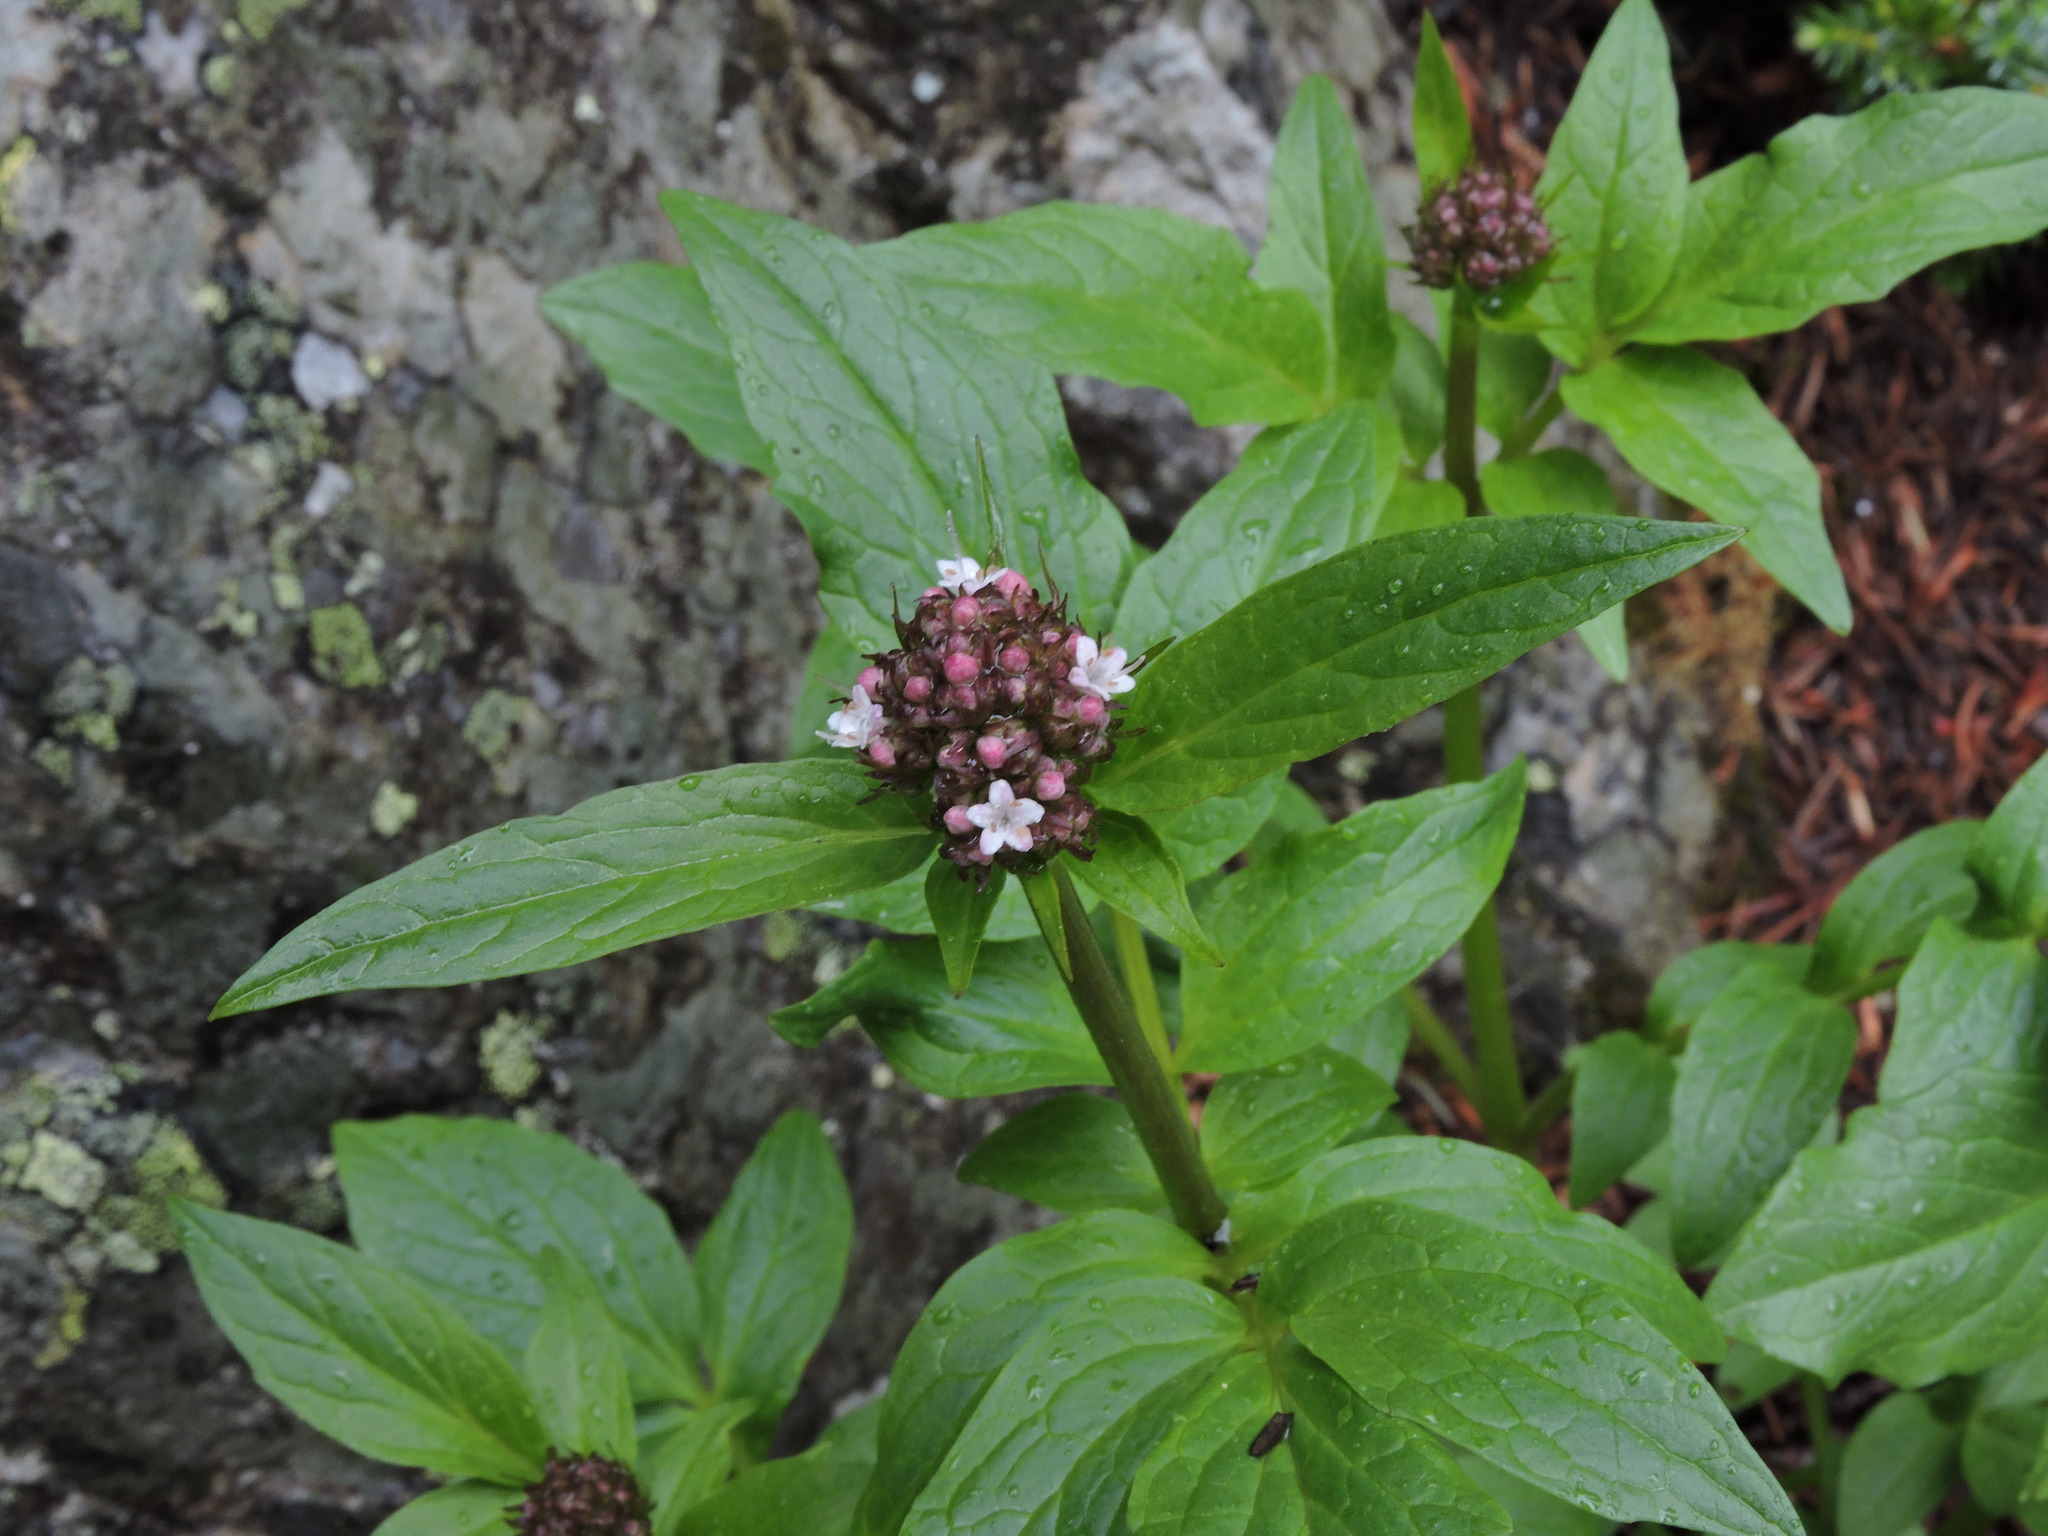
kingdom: Plantae
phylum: Tracheophyta
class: Magnoliopsida
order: Dipsacales
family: Caprifoliaceae
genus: Valeriana
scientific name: Valeriana sitchensis
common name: Pacific valerian
